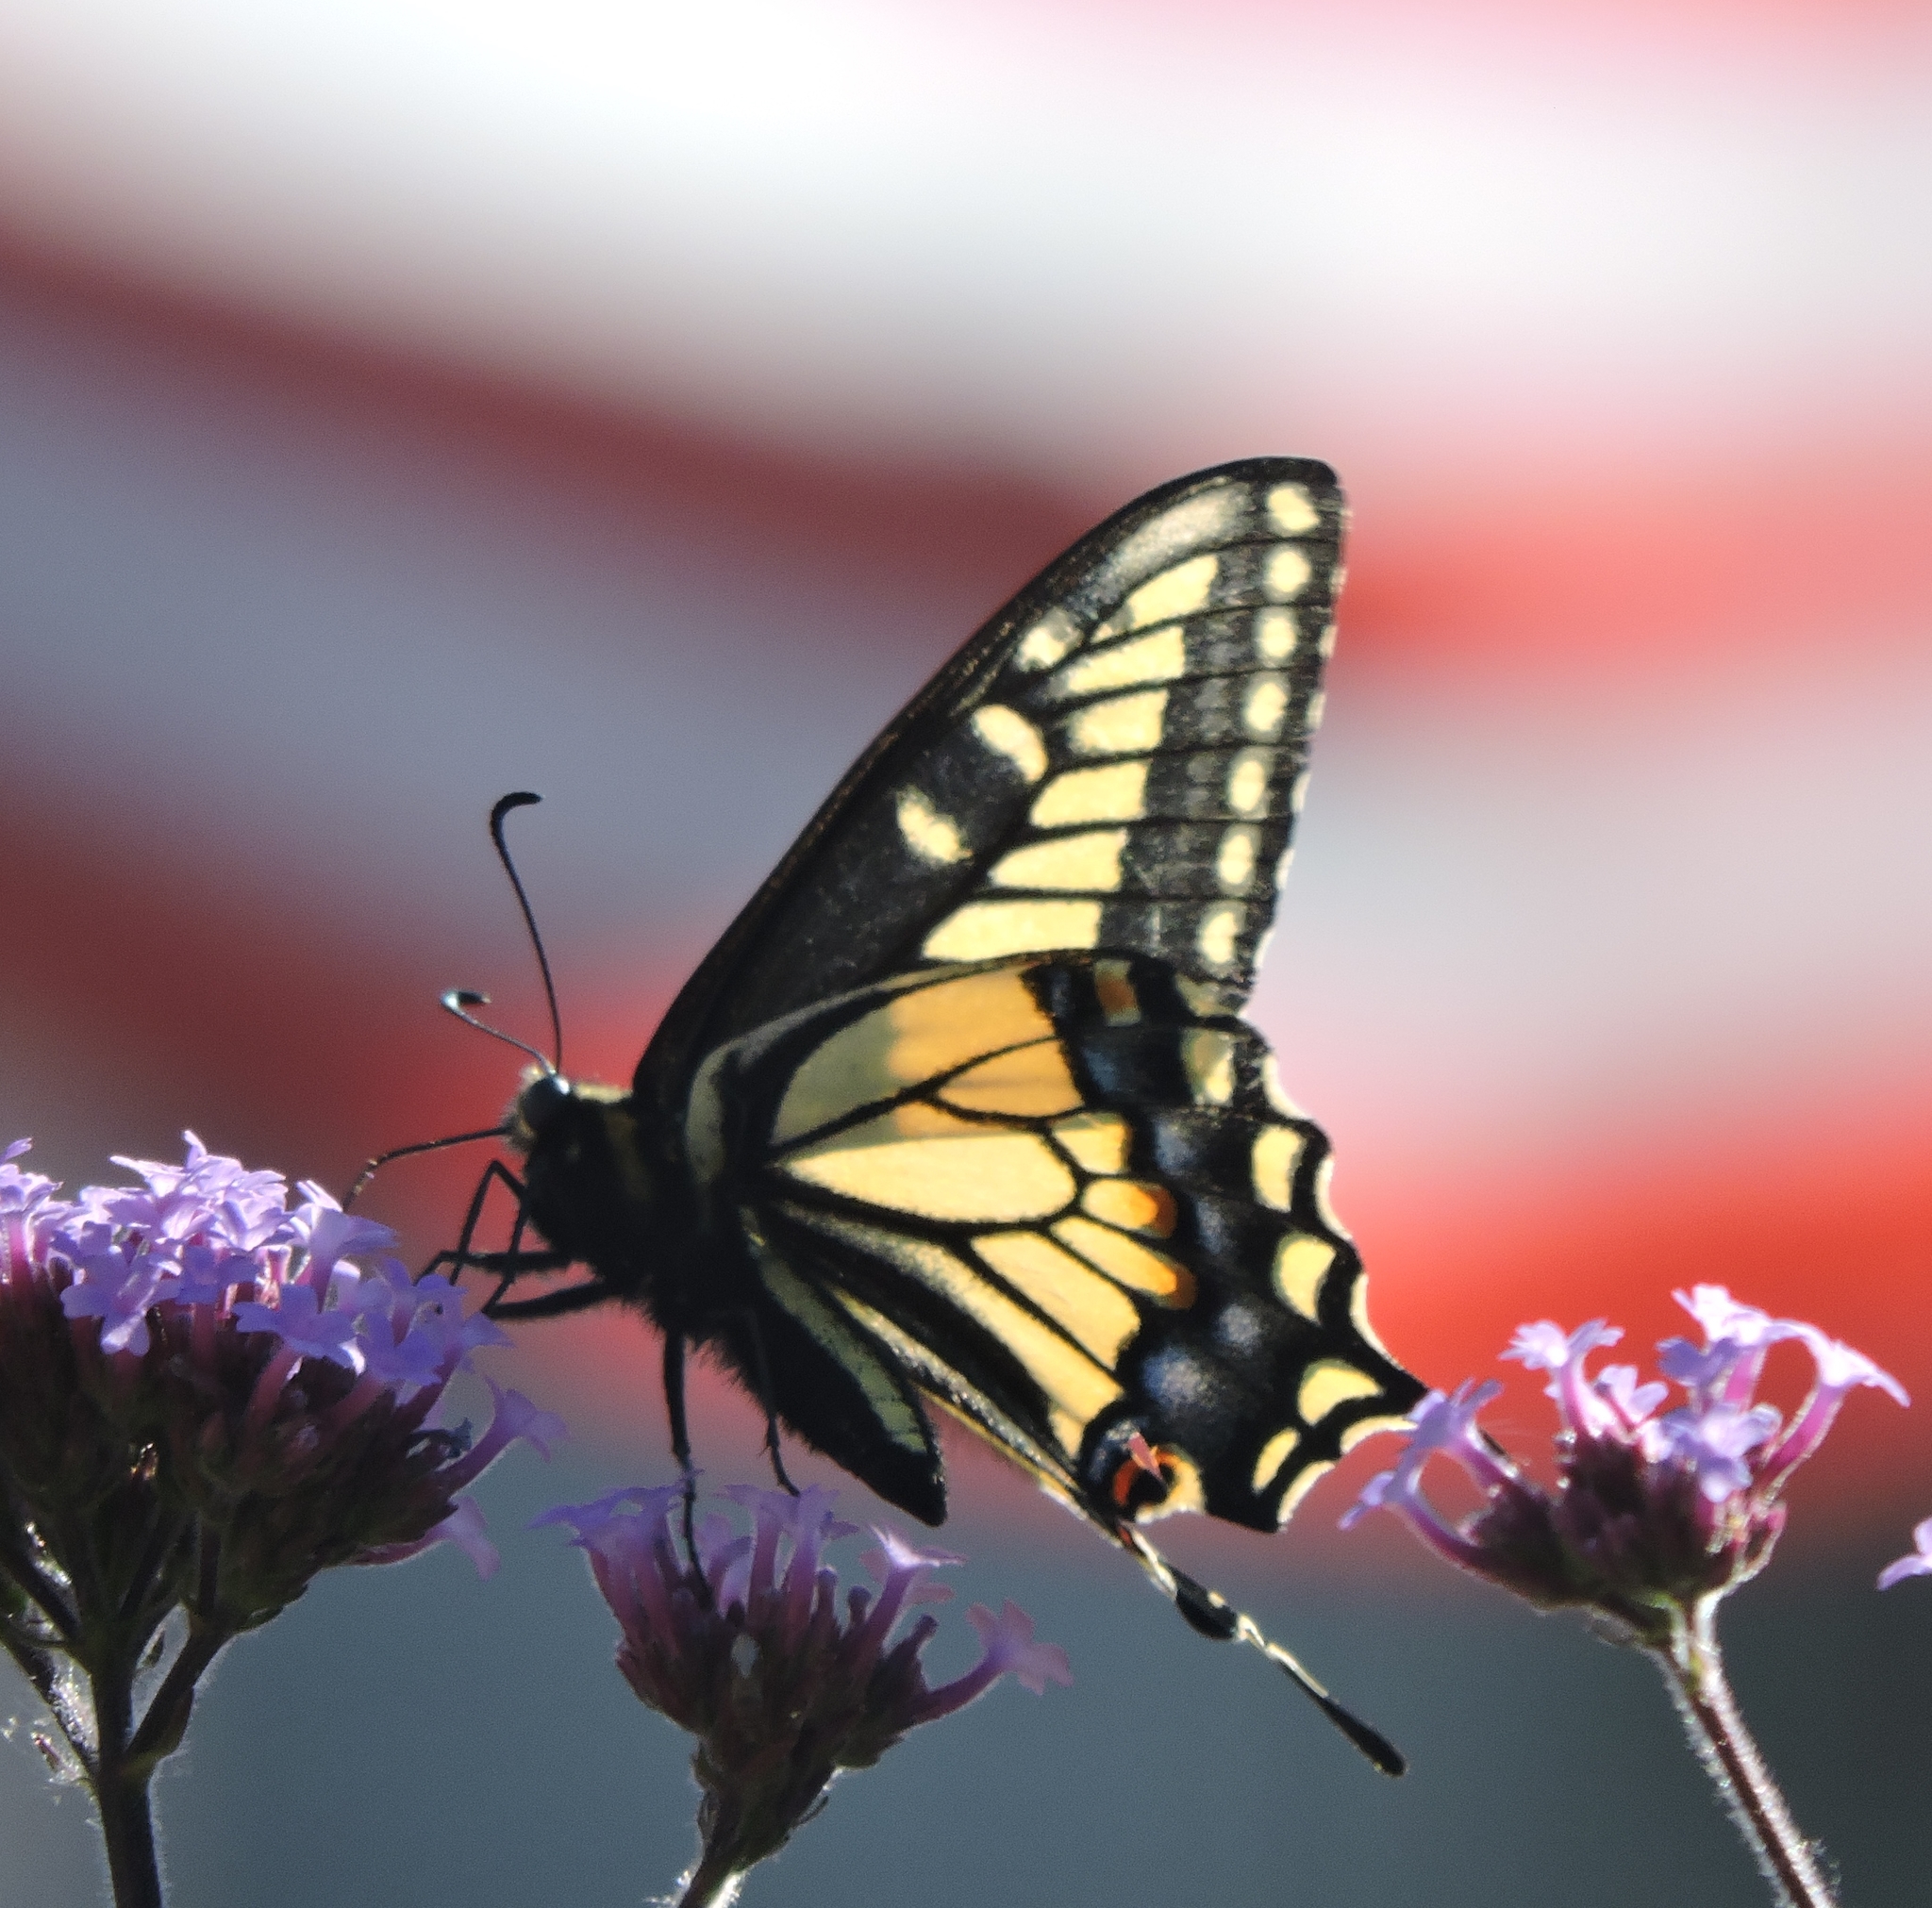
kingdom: Animalia
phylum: Arthropoda
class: Insecta
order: Lepidoptera
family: Papilionidae
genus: Papilio
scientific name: Papilio zelicaon
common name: Anise swallowtail
